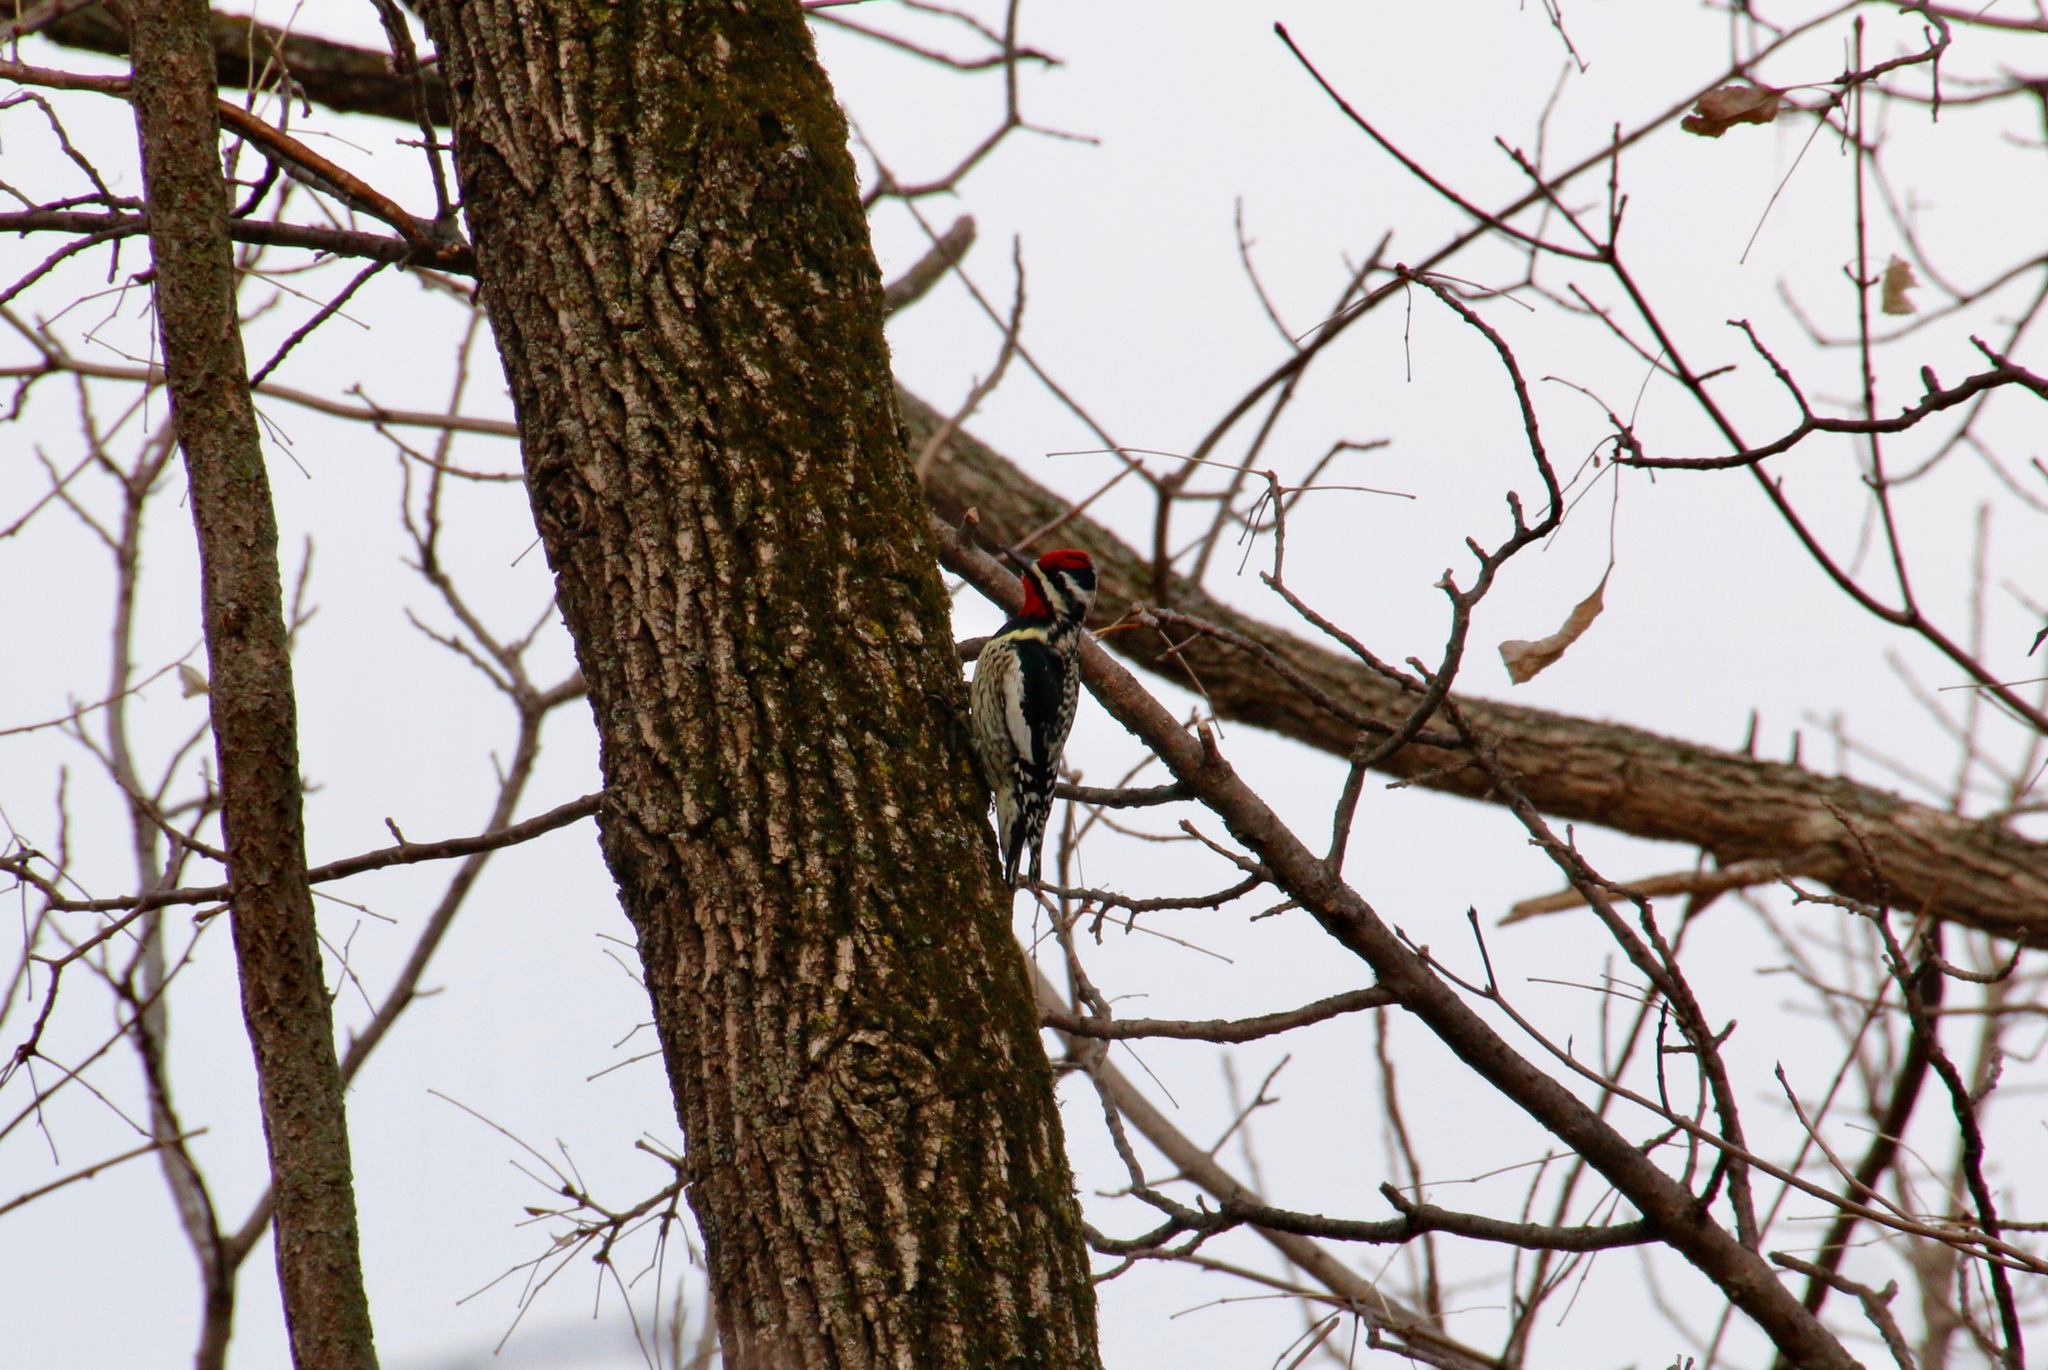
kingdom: Animalia
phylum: Chordata
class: Aves
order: Piciformes
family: Picidae
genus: Sphyrapicus
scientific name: Sphyrapicus varius
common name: Yellow-bellied sapsucker
